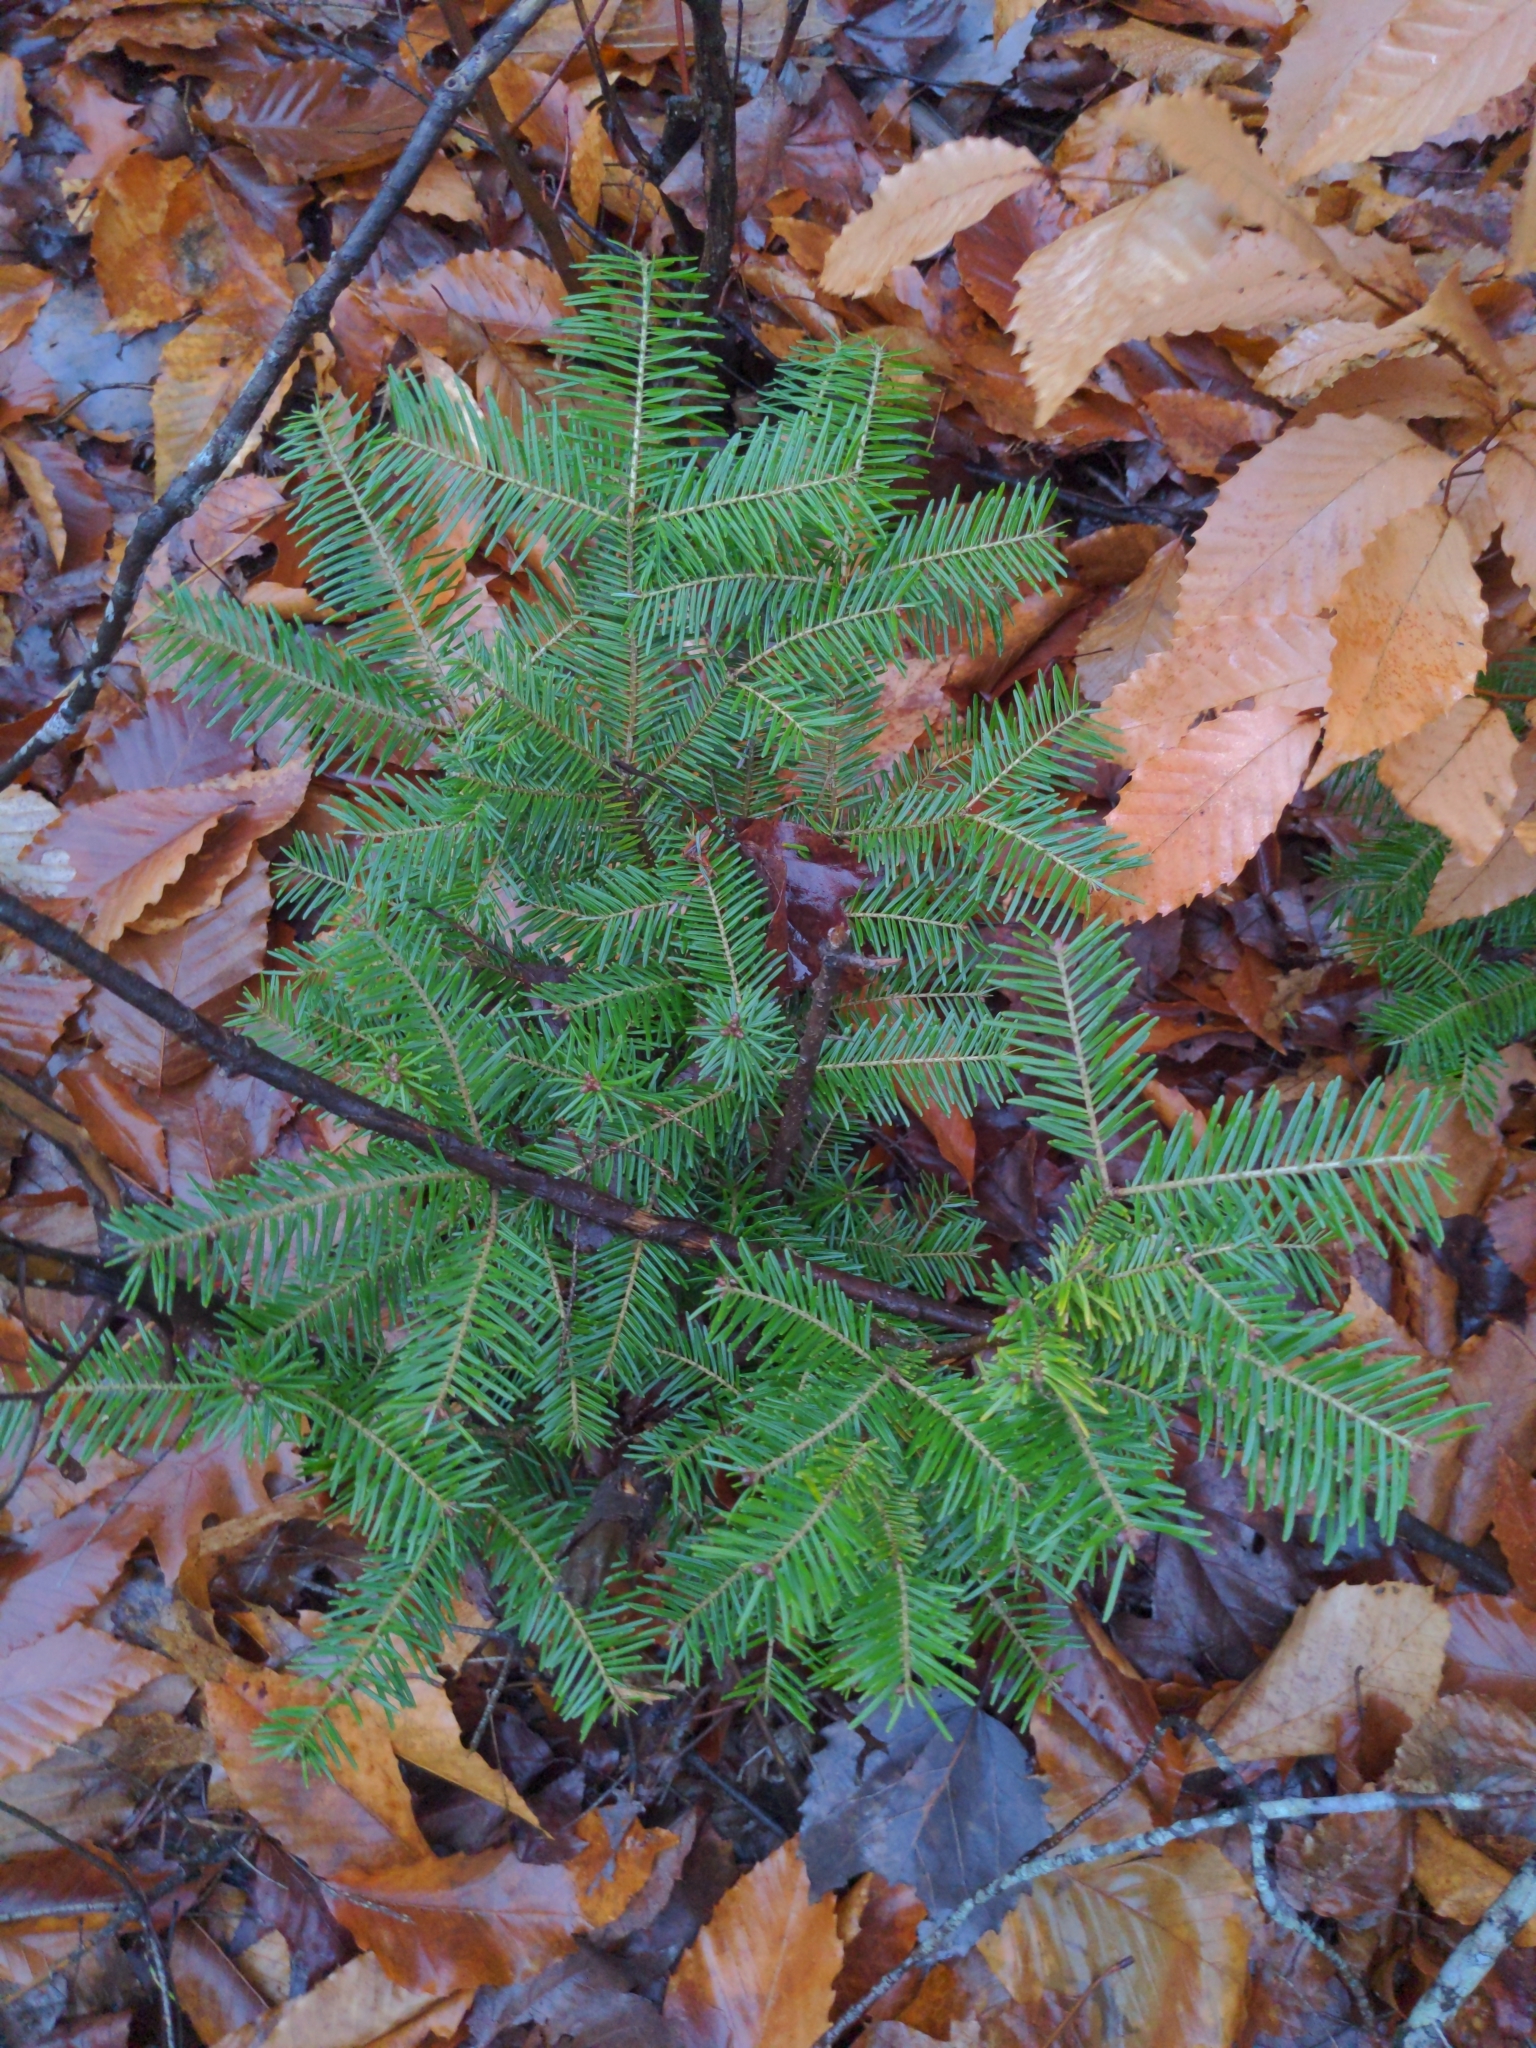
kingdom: Plantae
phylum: Tracheophyta
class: Pinopsida
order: Pinales
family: Pinaceae
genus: Abies
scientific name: Abies balsamea
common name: Balsam fir
